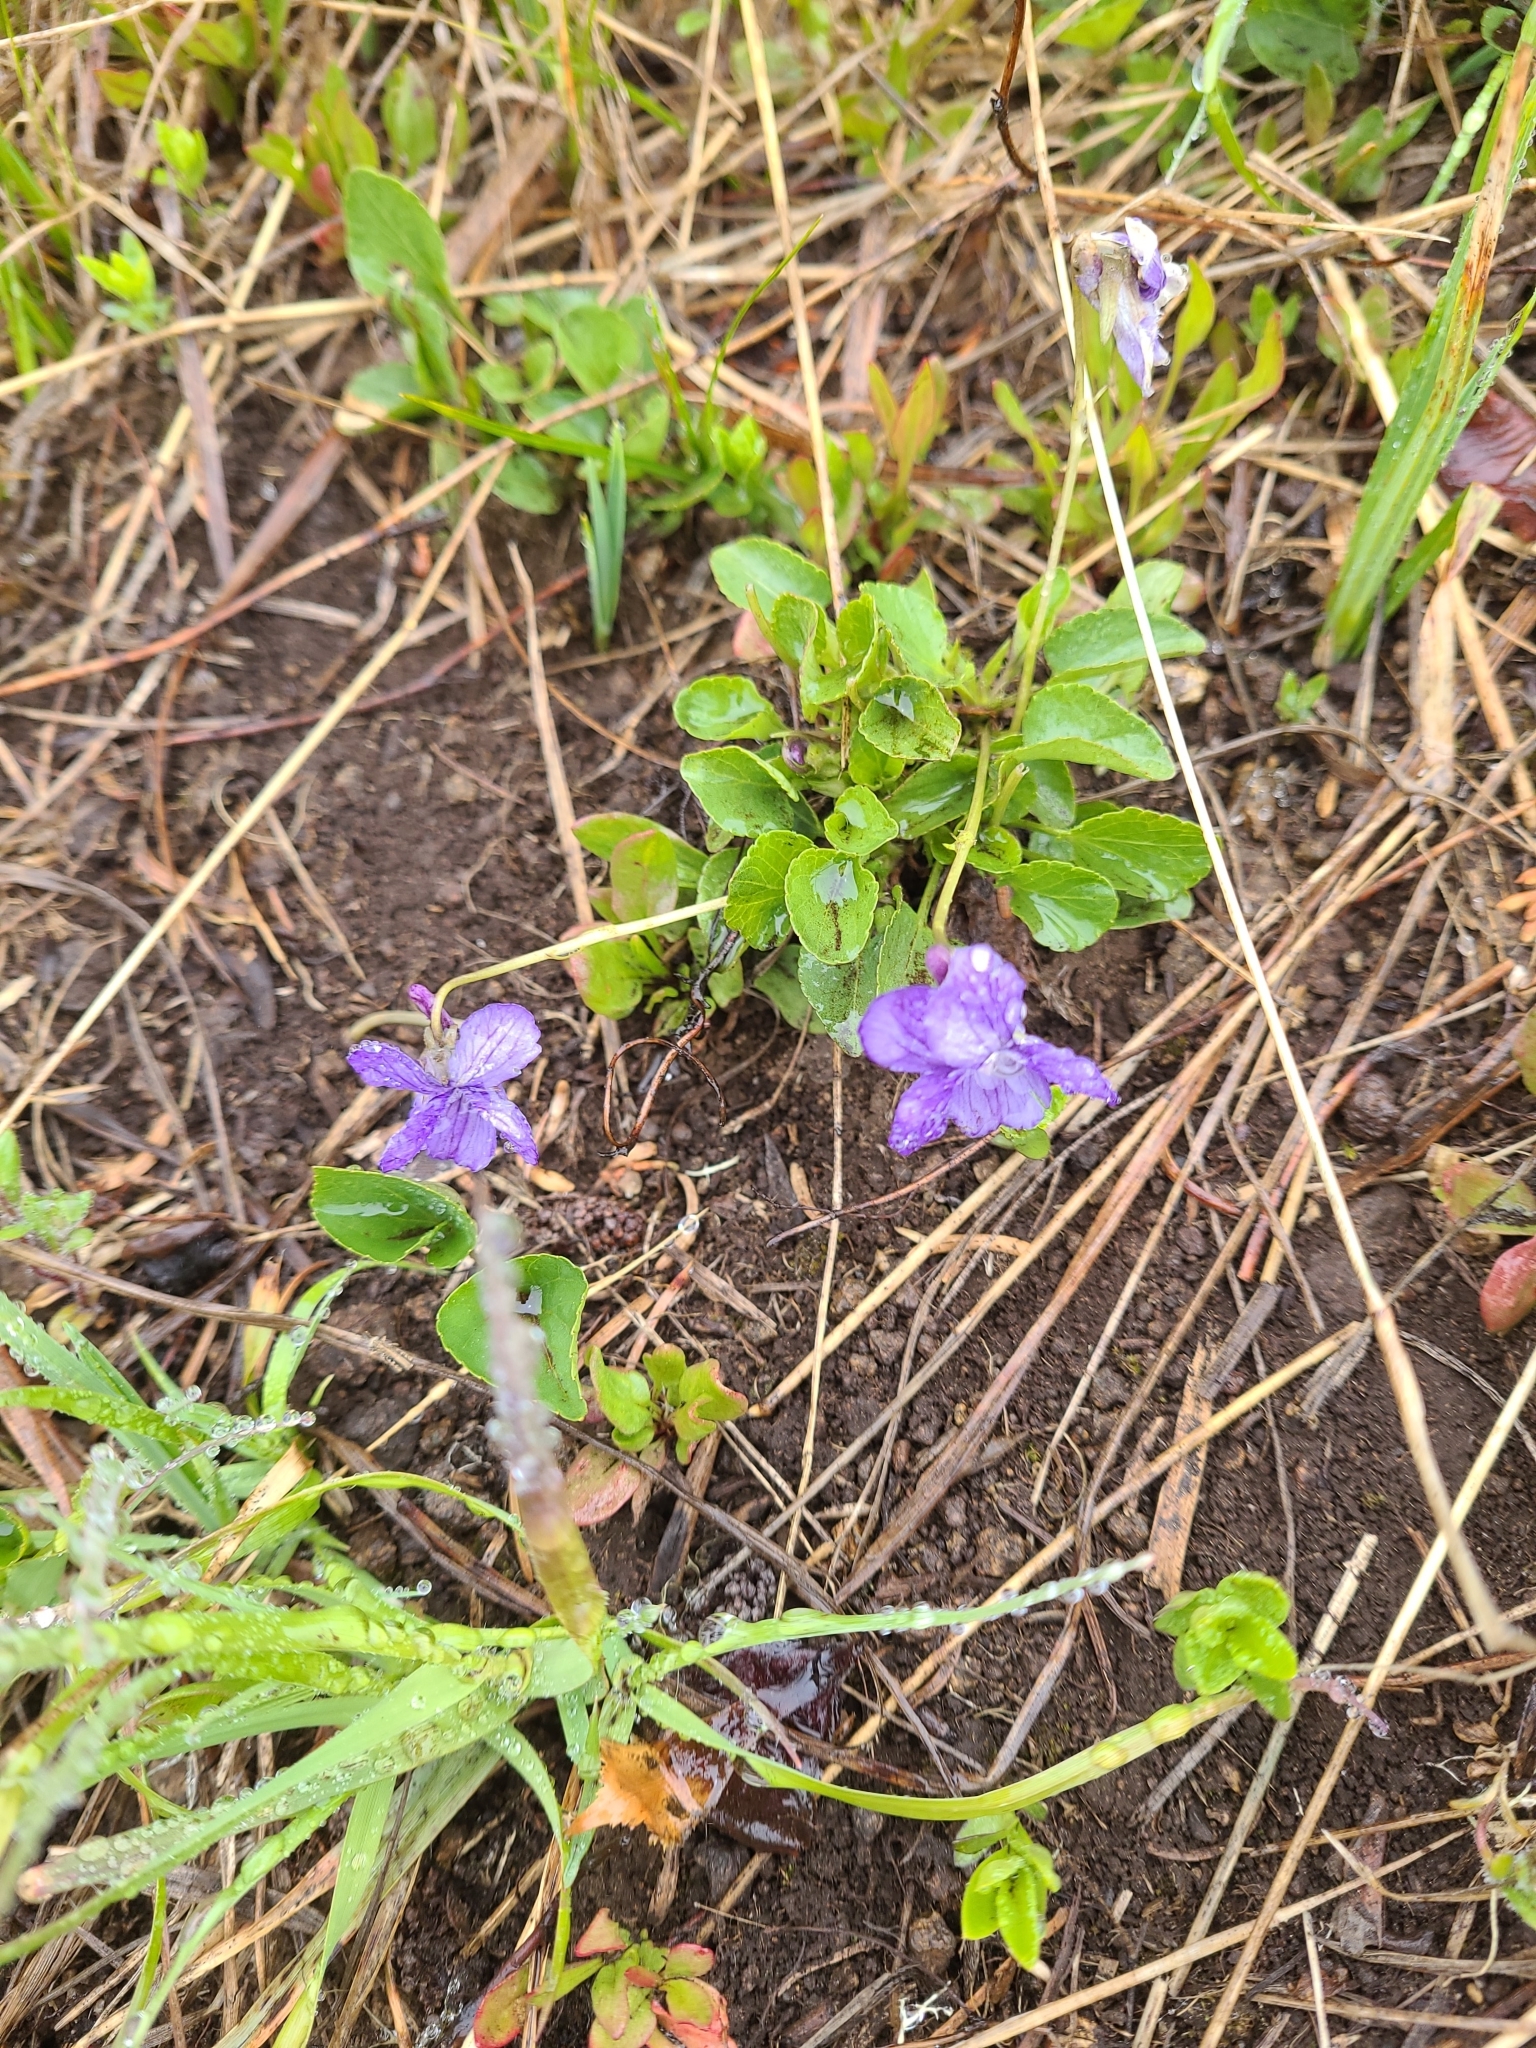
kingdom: Plantae
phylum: Tracheophyta
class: Magnoliopsida
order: Malpighiales
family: Violaceae
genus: Viola
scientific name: Viola adunca
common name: Sand violet
